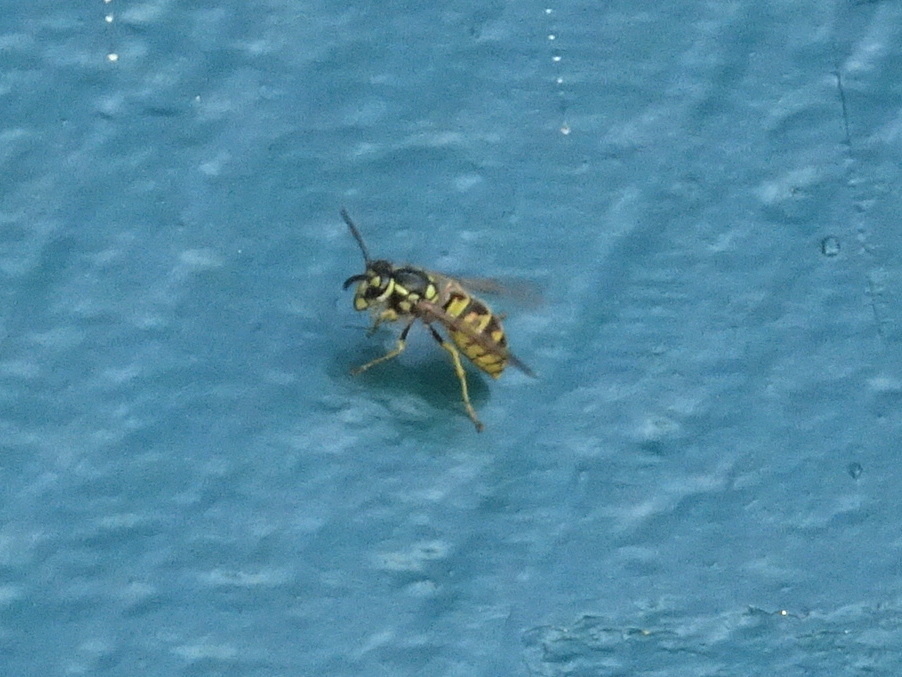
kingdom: Animalia
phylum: Arthropoda
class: Insecta
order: Hymenoptera
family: Vespidae
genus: Vespula
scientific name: Vespula germanica
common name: German wasp
